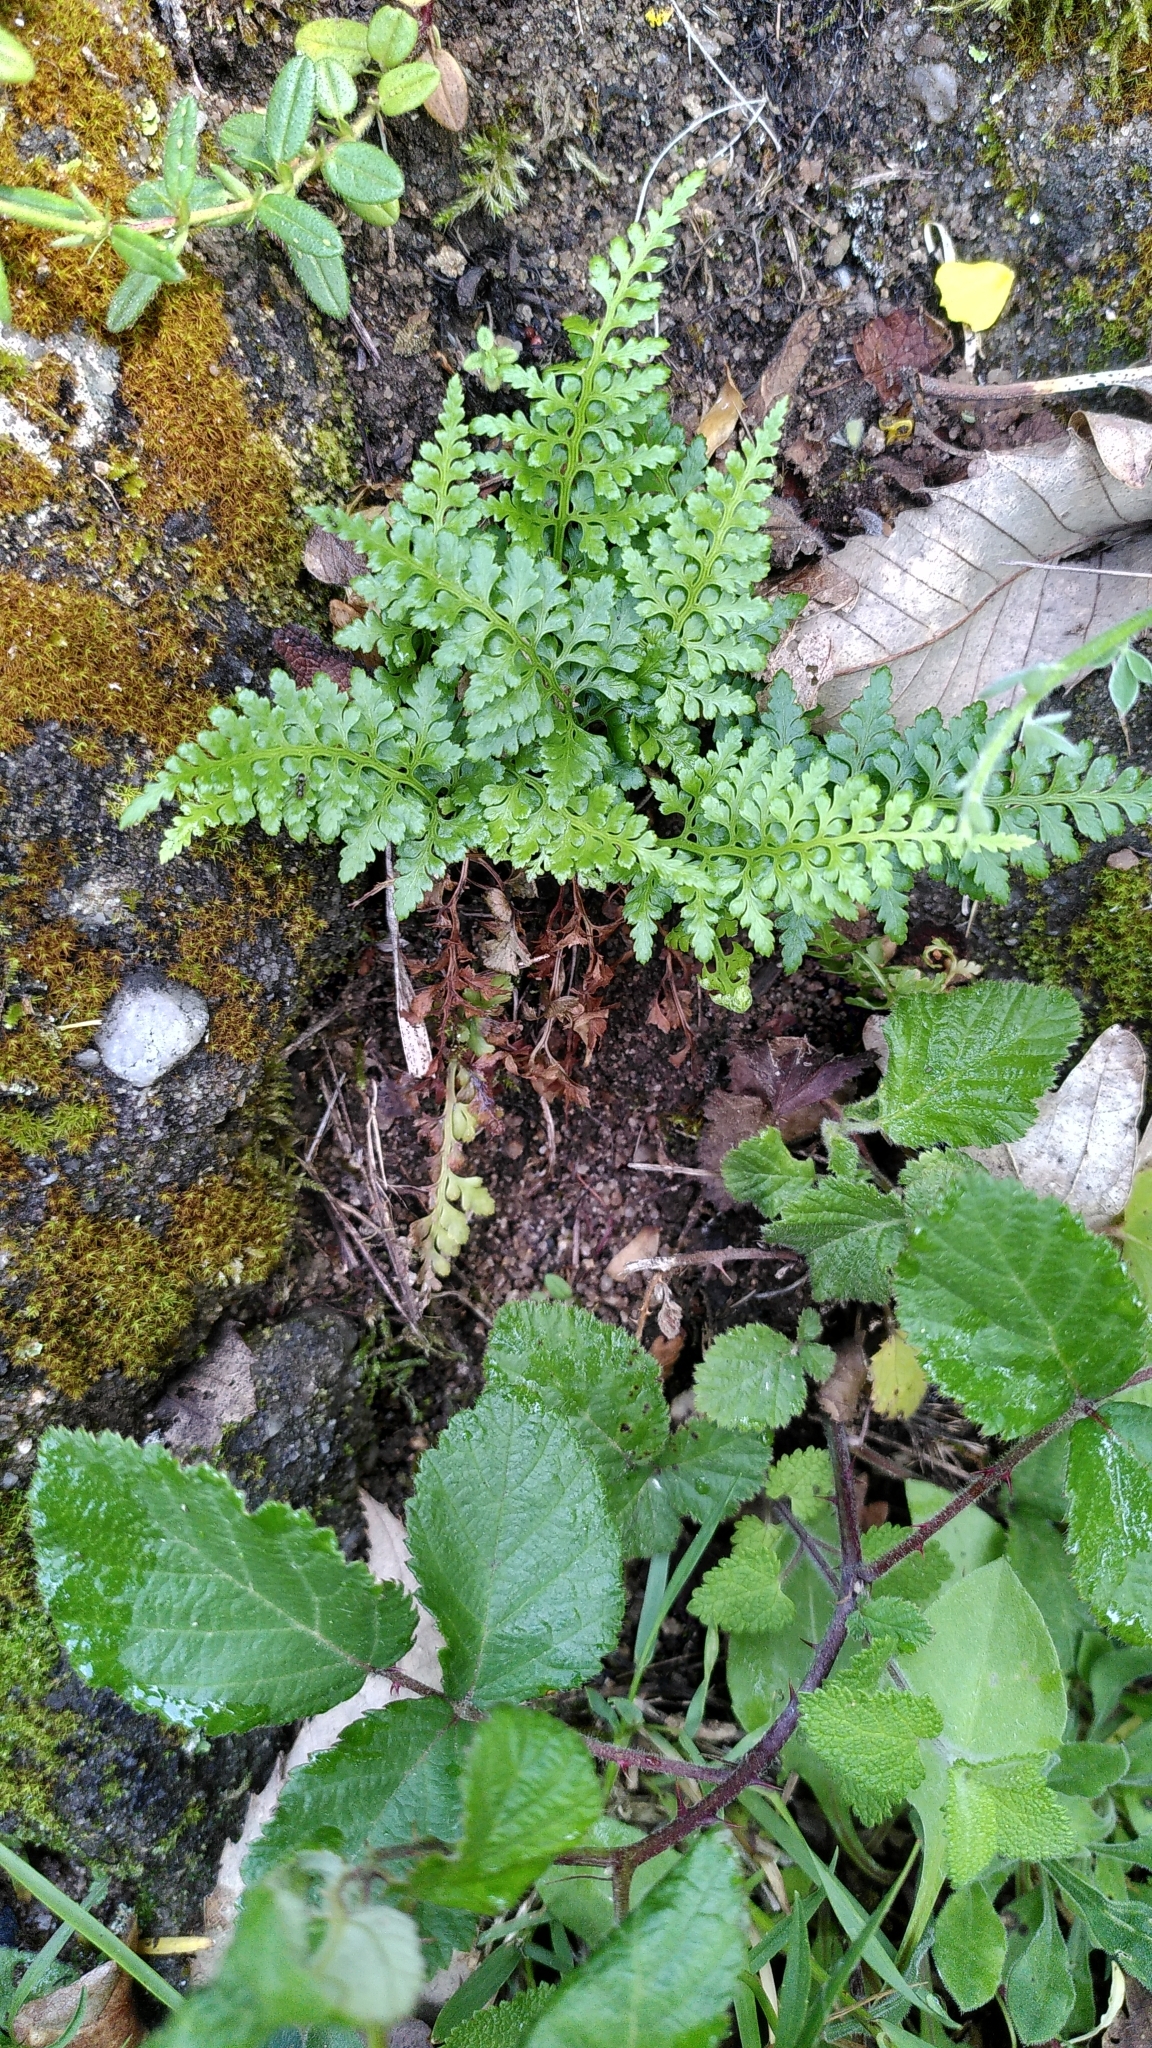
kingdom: Plantae
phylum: Tracheophyta
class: Polypodiopsida
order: Polypodiales
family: Aspleniaceae
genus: Asplenium
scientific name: Asplenium adiantum-nigrum
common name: Black spleenwort
